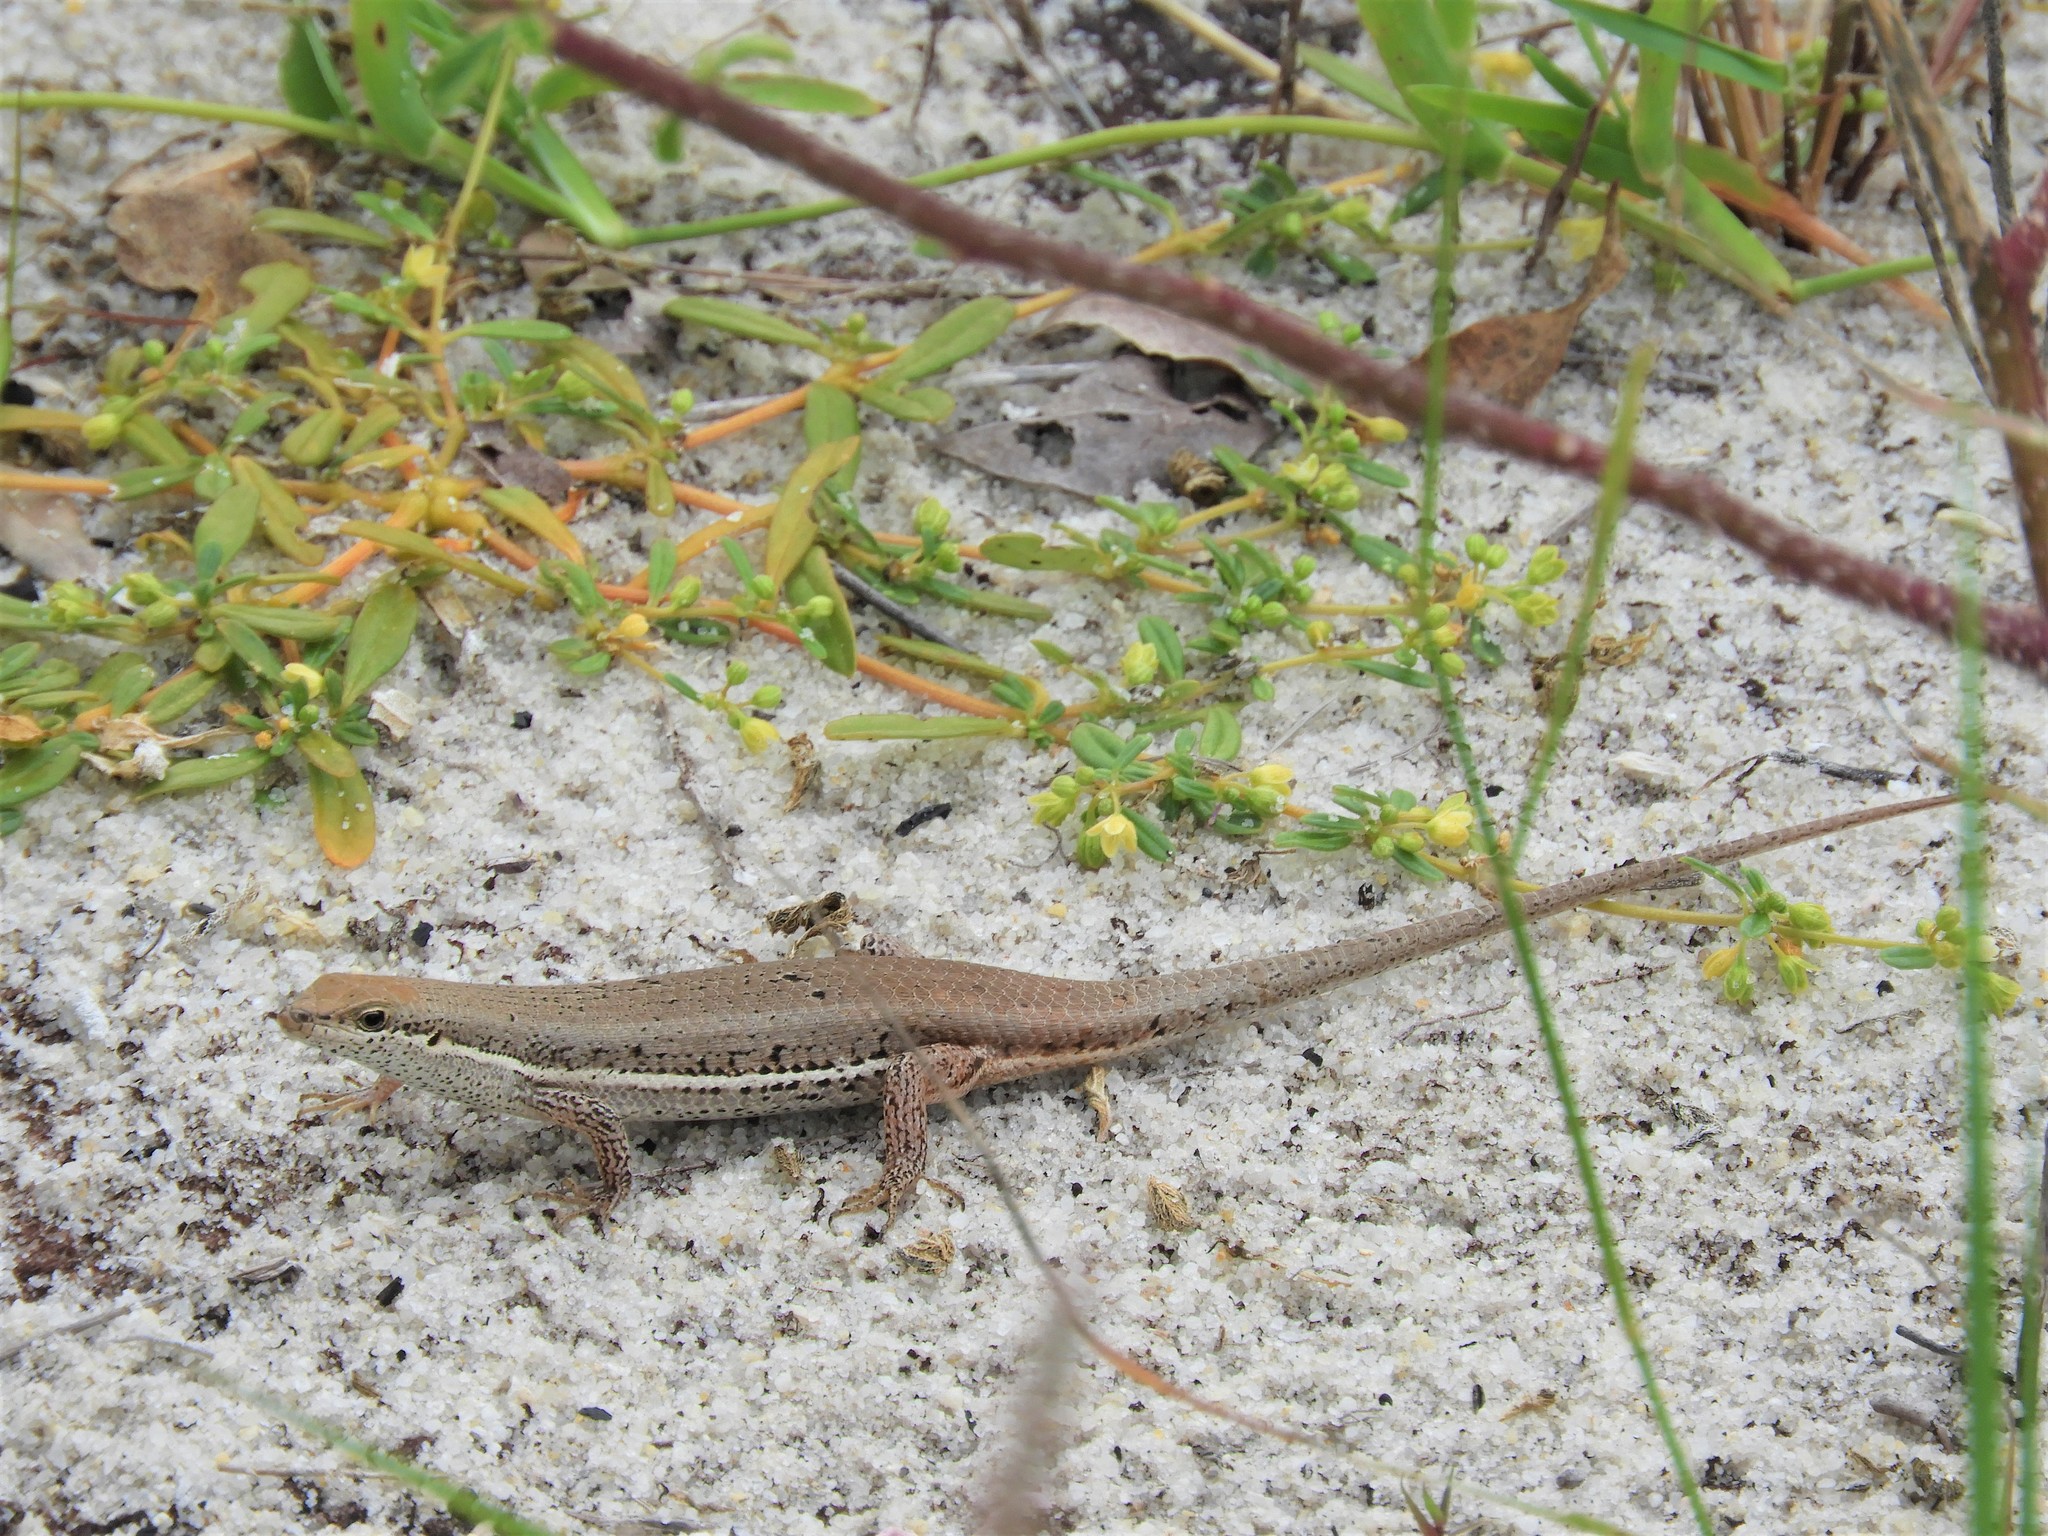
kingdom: Animalia
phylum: Chordata
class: Squamata
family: Scincidae
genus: Trachylepis
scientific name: Trachylepis varia
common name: Eastern variable skink
